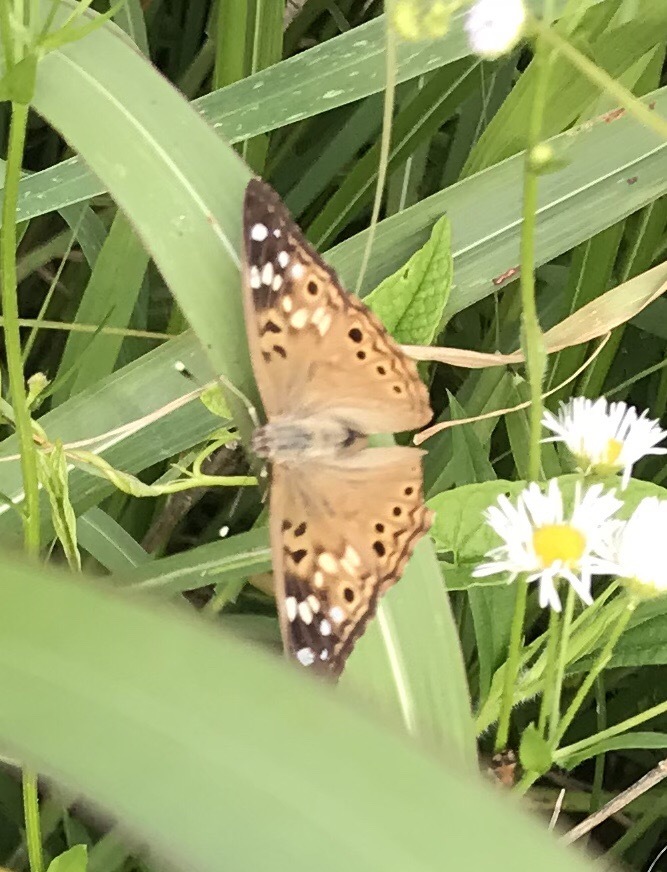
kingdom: Animalia
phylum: Arthropoda
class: Insecta
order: Lepidoptera
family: Nymphalidae
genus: Asterocampa
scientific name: Asterocampa celtis
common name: Hackberry emperor
